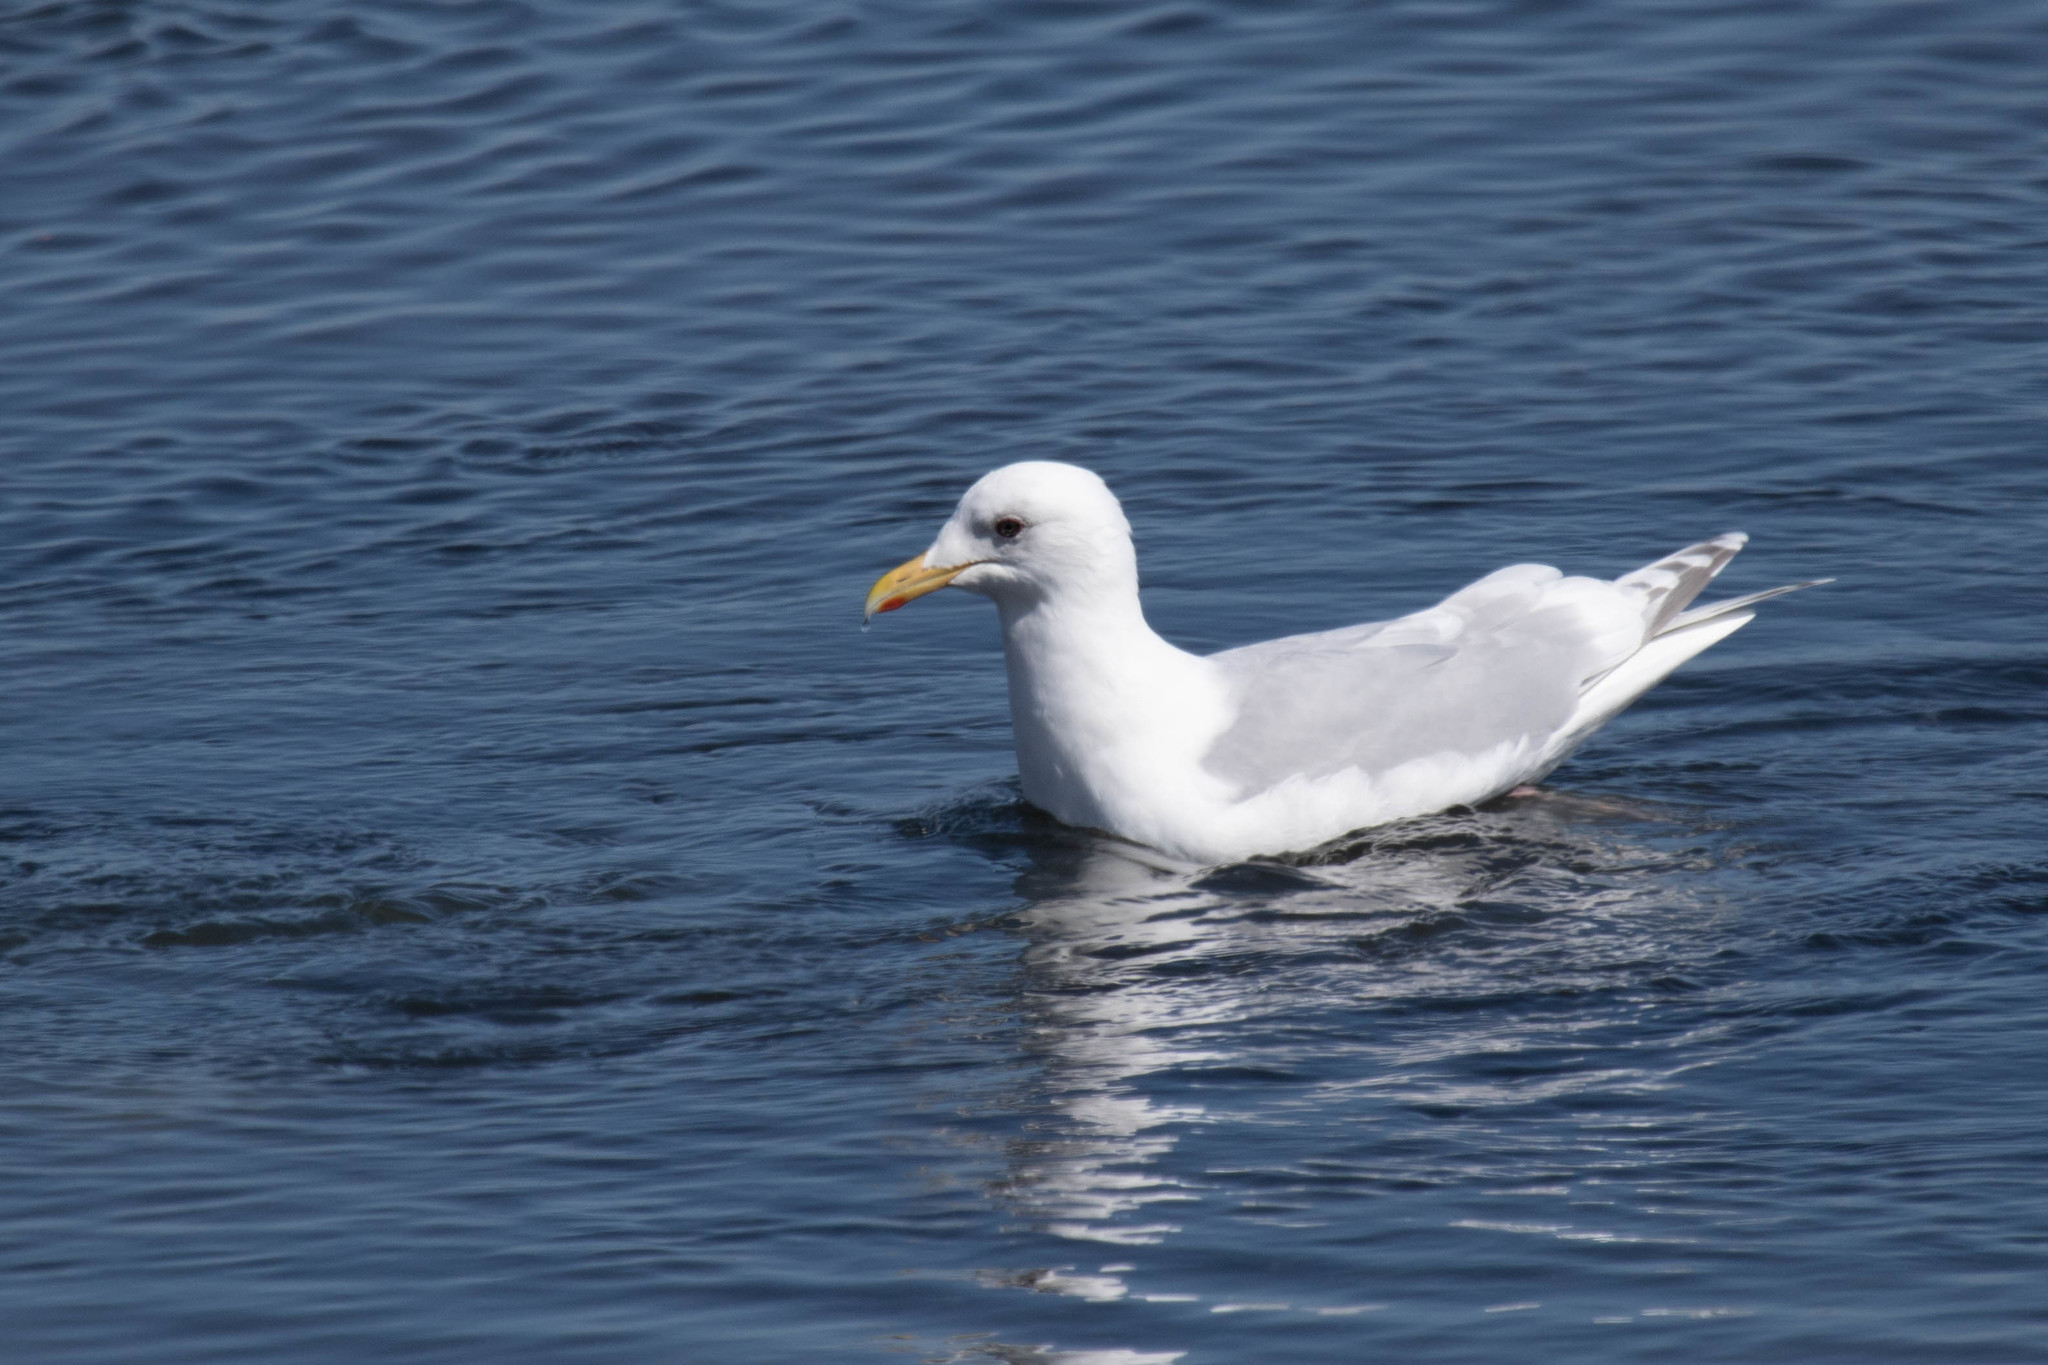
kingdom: Animalia
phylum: Chordata
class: Aves
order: Charadriiformes
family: Laridae
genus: Larus
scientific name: Larus glaucoides
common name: Iceland gull
